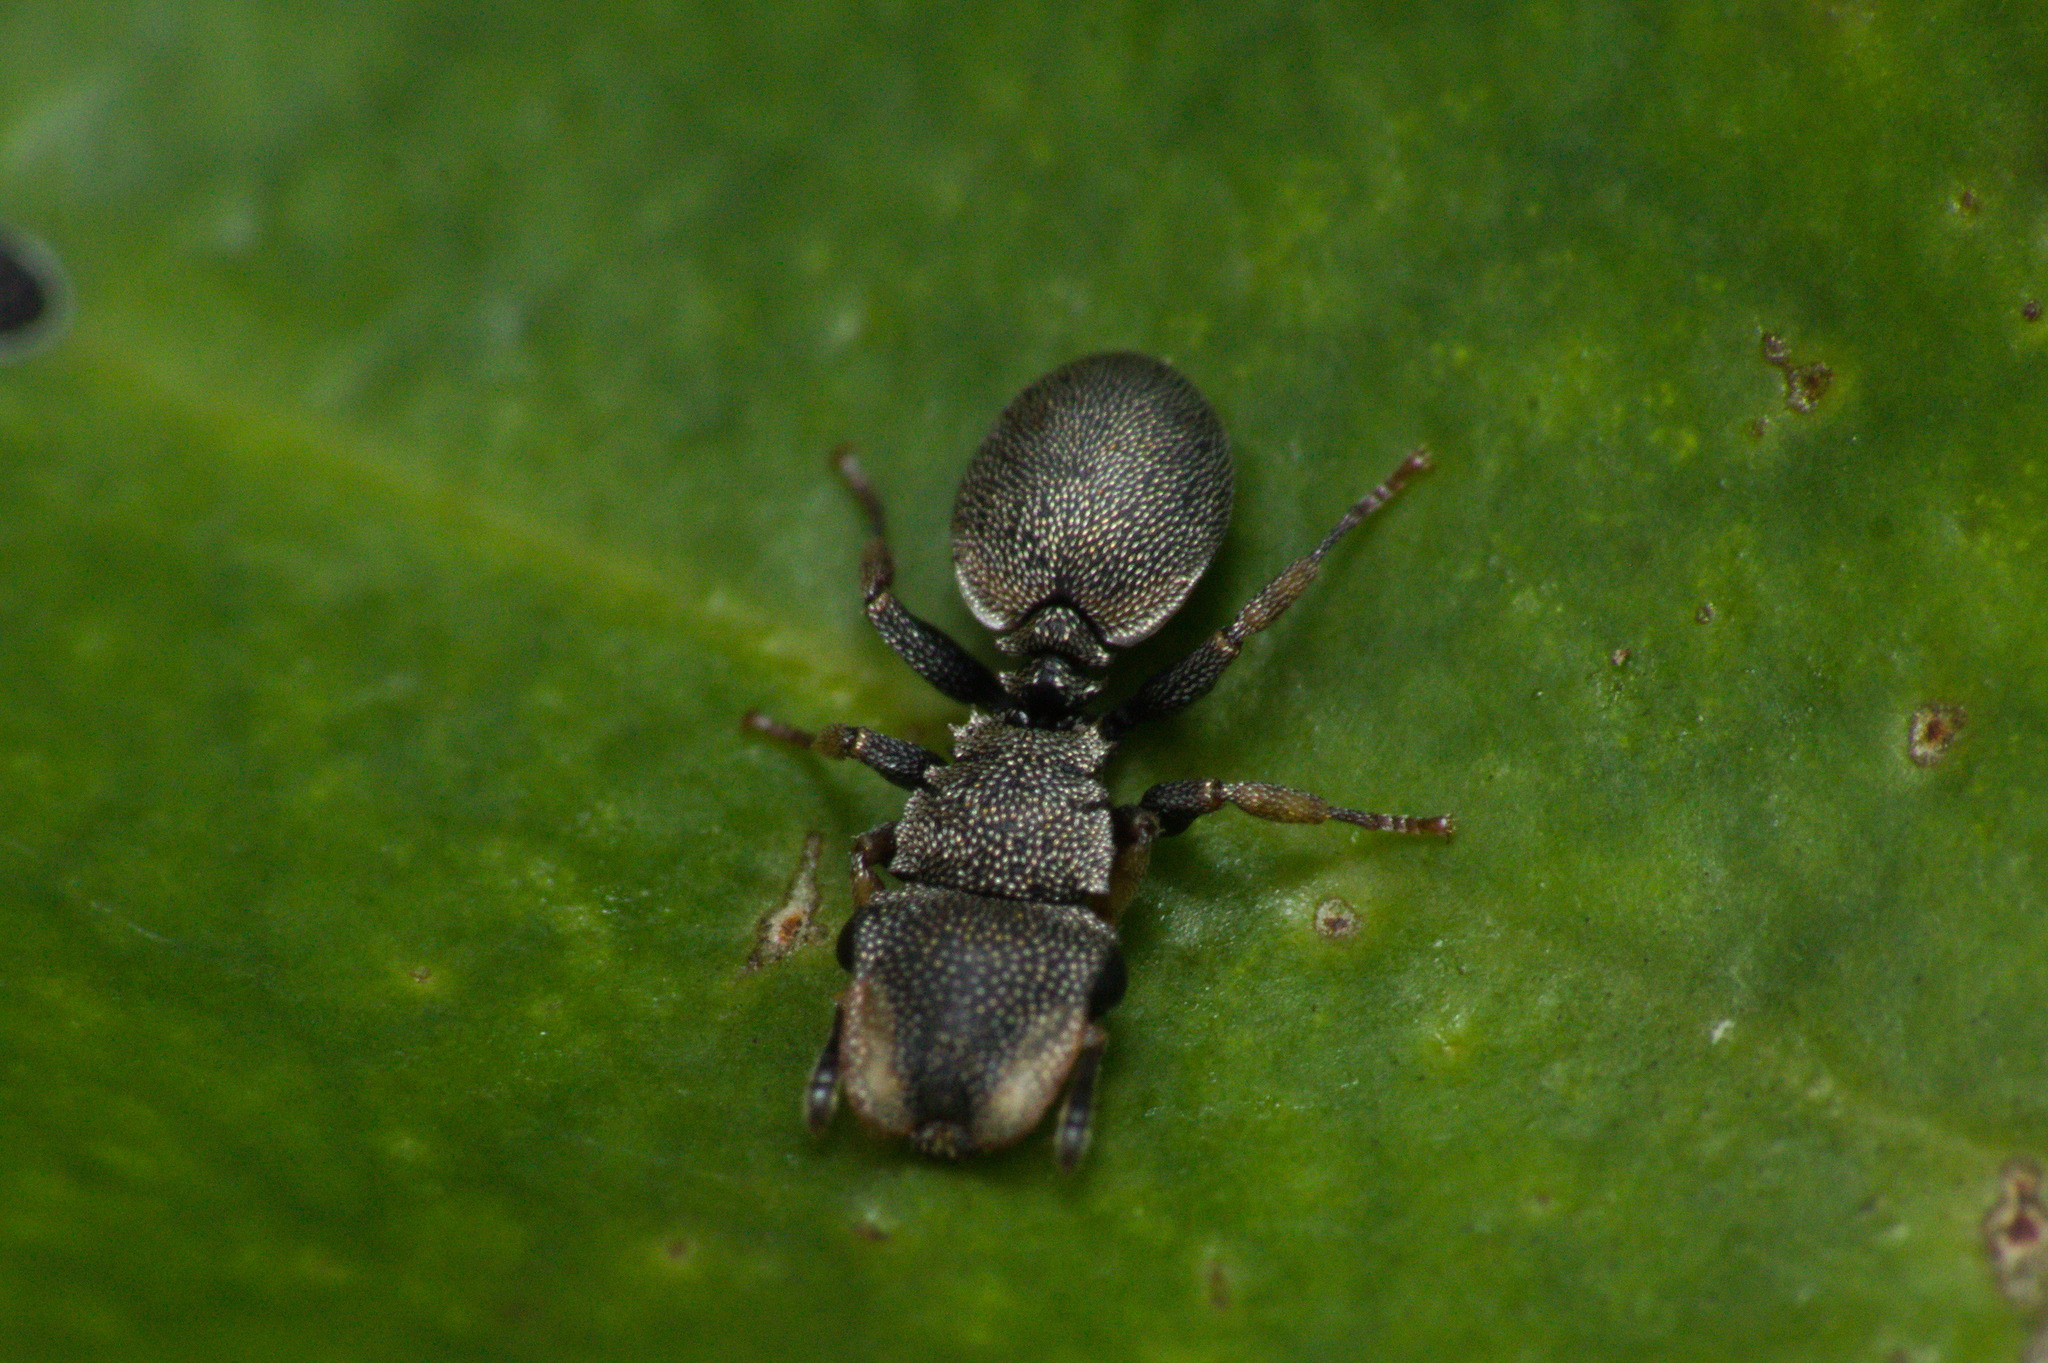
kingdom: Animalia
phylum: Arthropoda
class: Insecta
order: Hymenoptera
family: Formicidae
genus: Cephalotes
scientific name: Cephalotes
